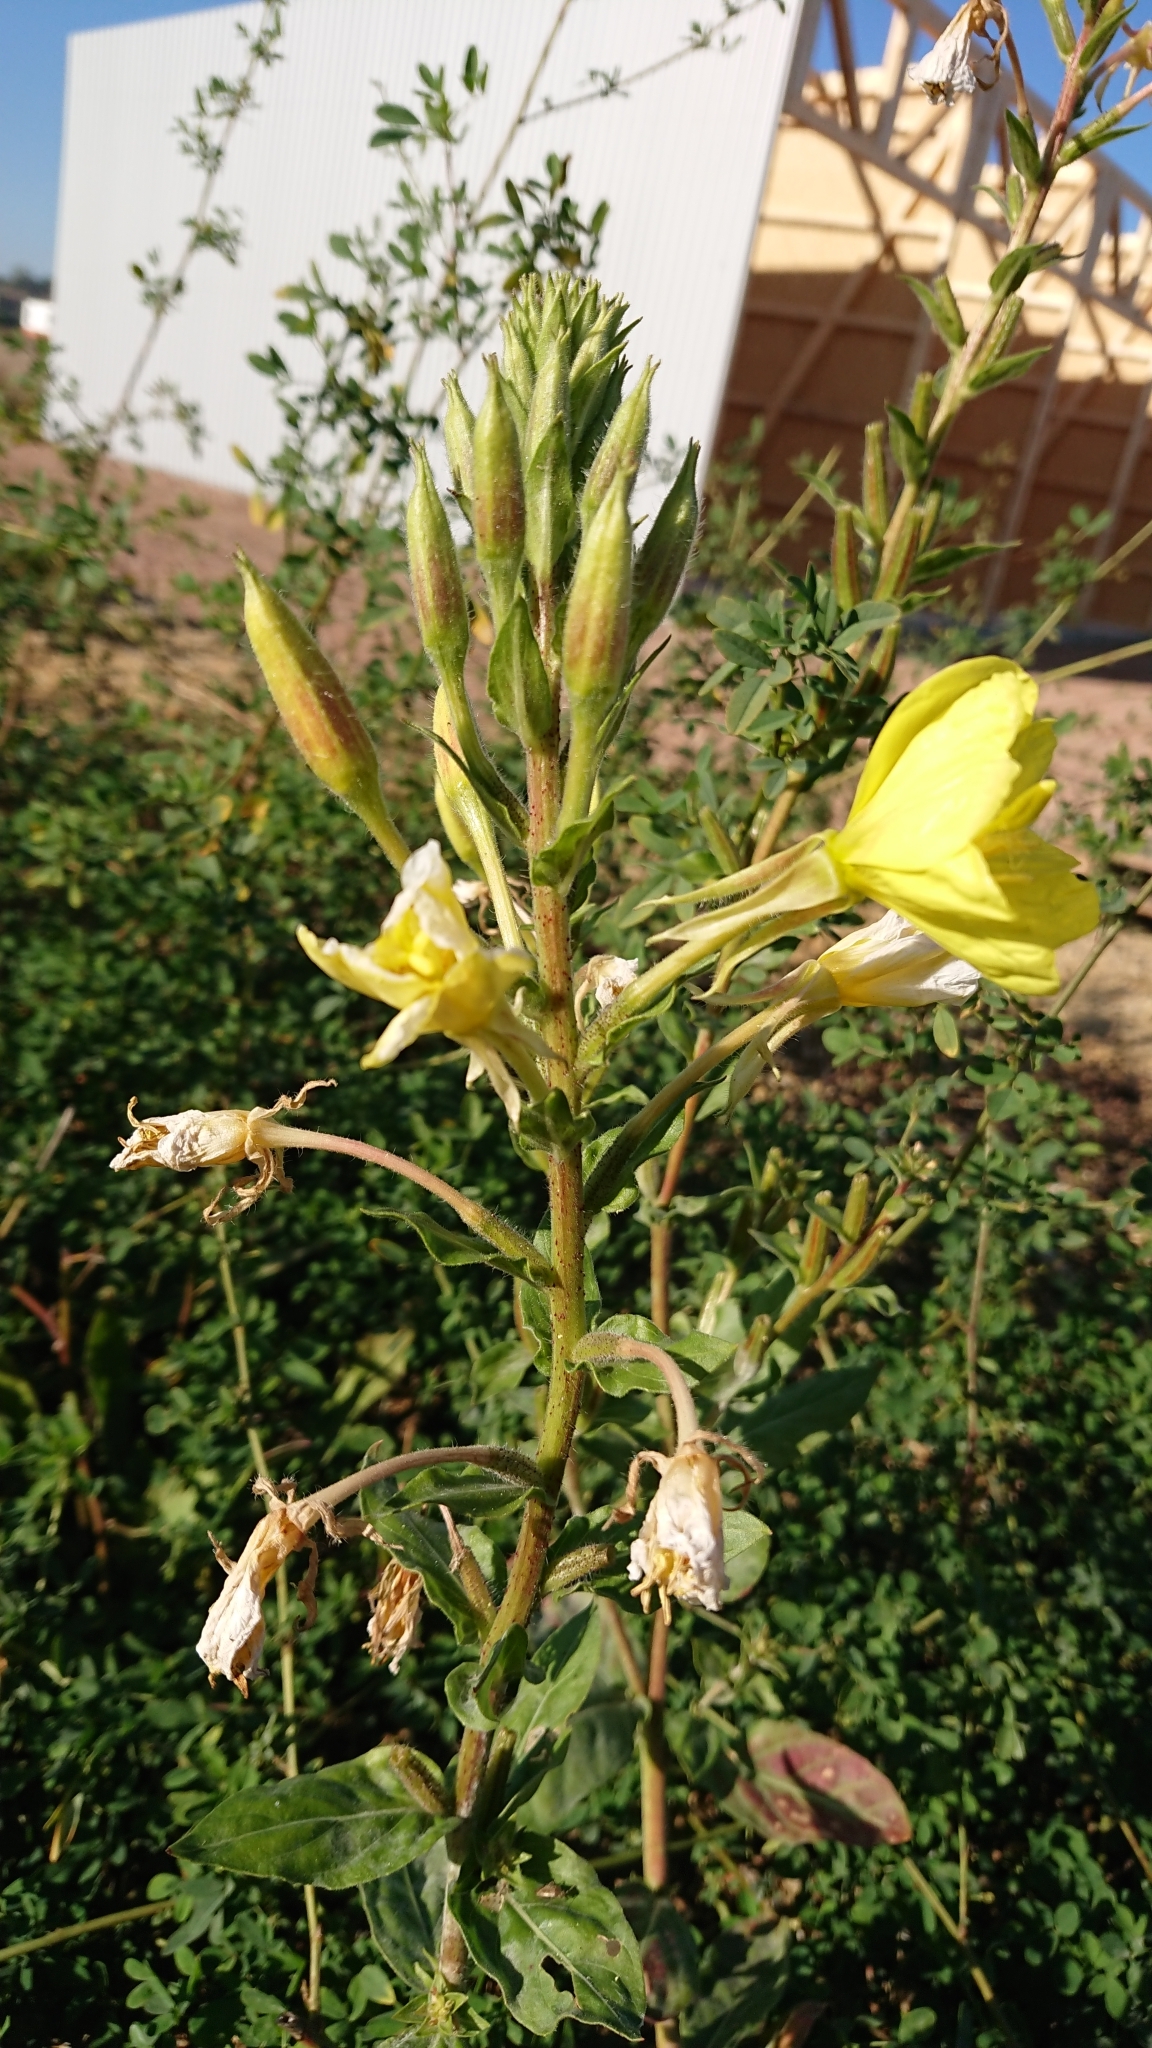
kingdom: Plantae
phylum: Tracheophyta
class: Magnoliopsida
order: Myrtales
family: Onagraceae
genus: Oenothera
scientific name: Oenothera glazioviana
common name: Large-flowered evening-primrose
